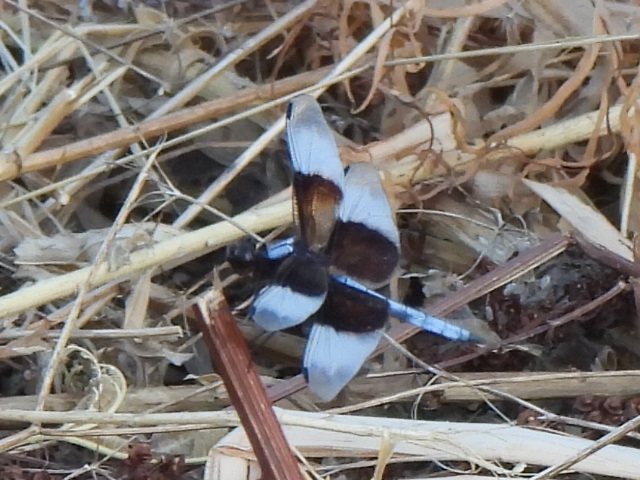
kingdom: Animalia
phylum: Arthropoda
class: Insecta
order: Odonata
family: Libellulidae
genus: Libellula
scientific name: Libellula luctuosa
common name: Widow skimmer
